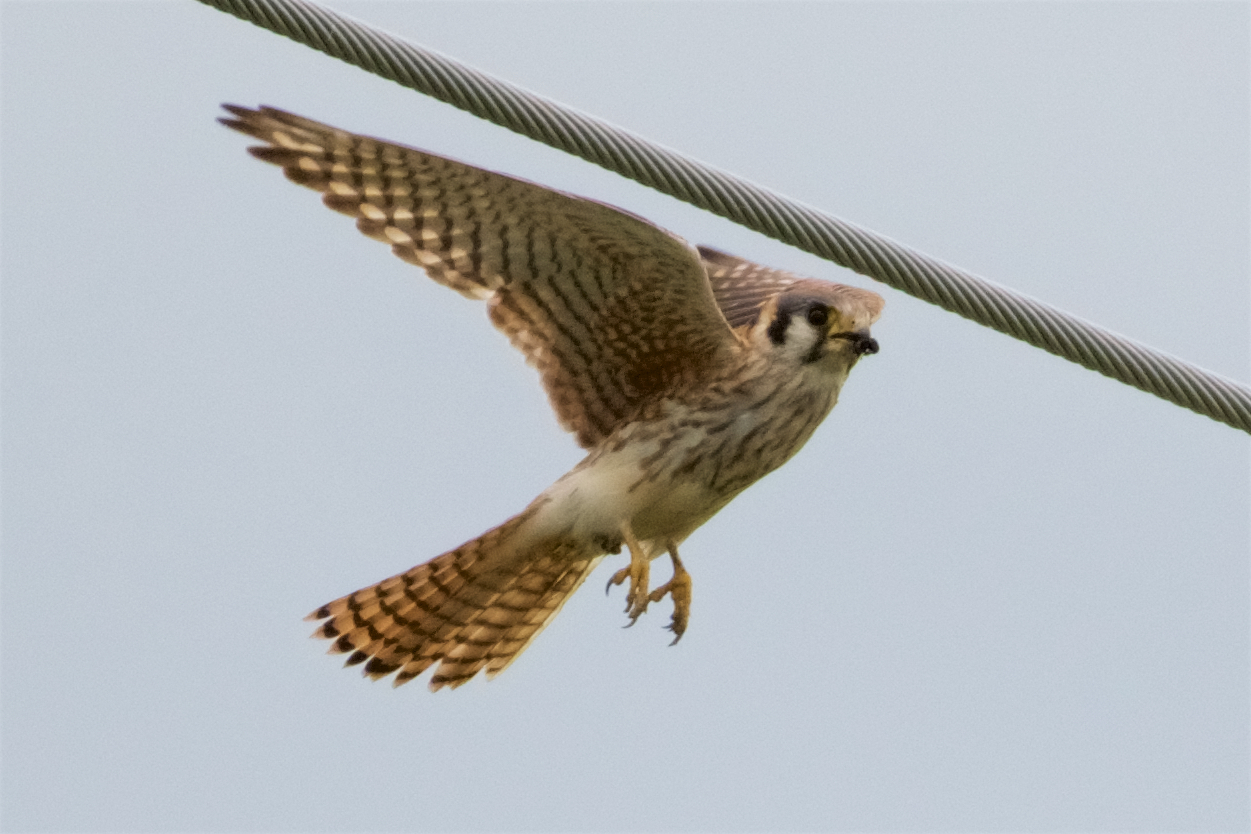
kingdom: Animalia
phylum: Chordata
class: Aves
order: Falconiformes
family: Falconidae
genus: Falco
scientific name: Falco sparverius
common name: American kestrel
